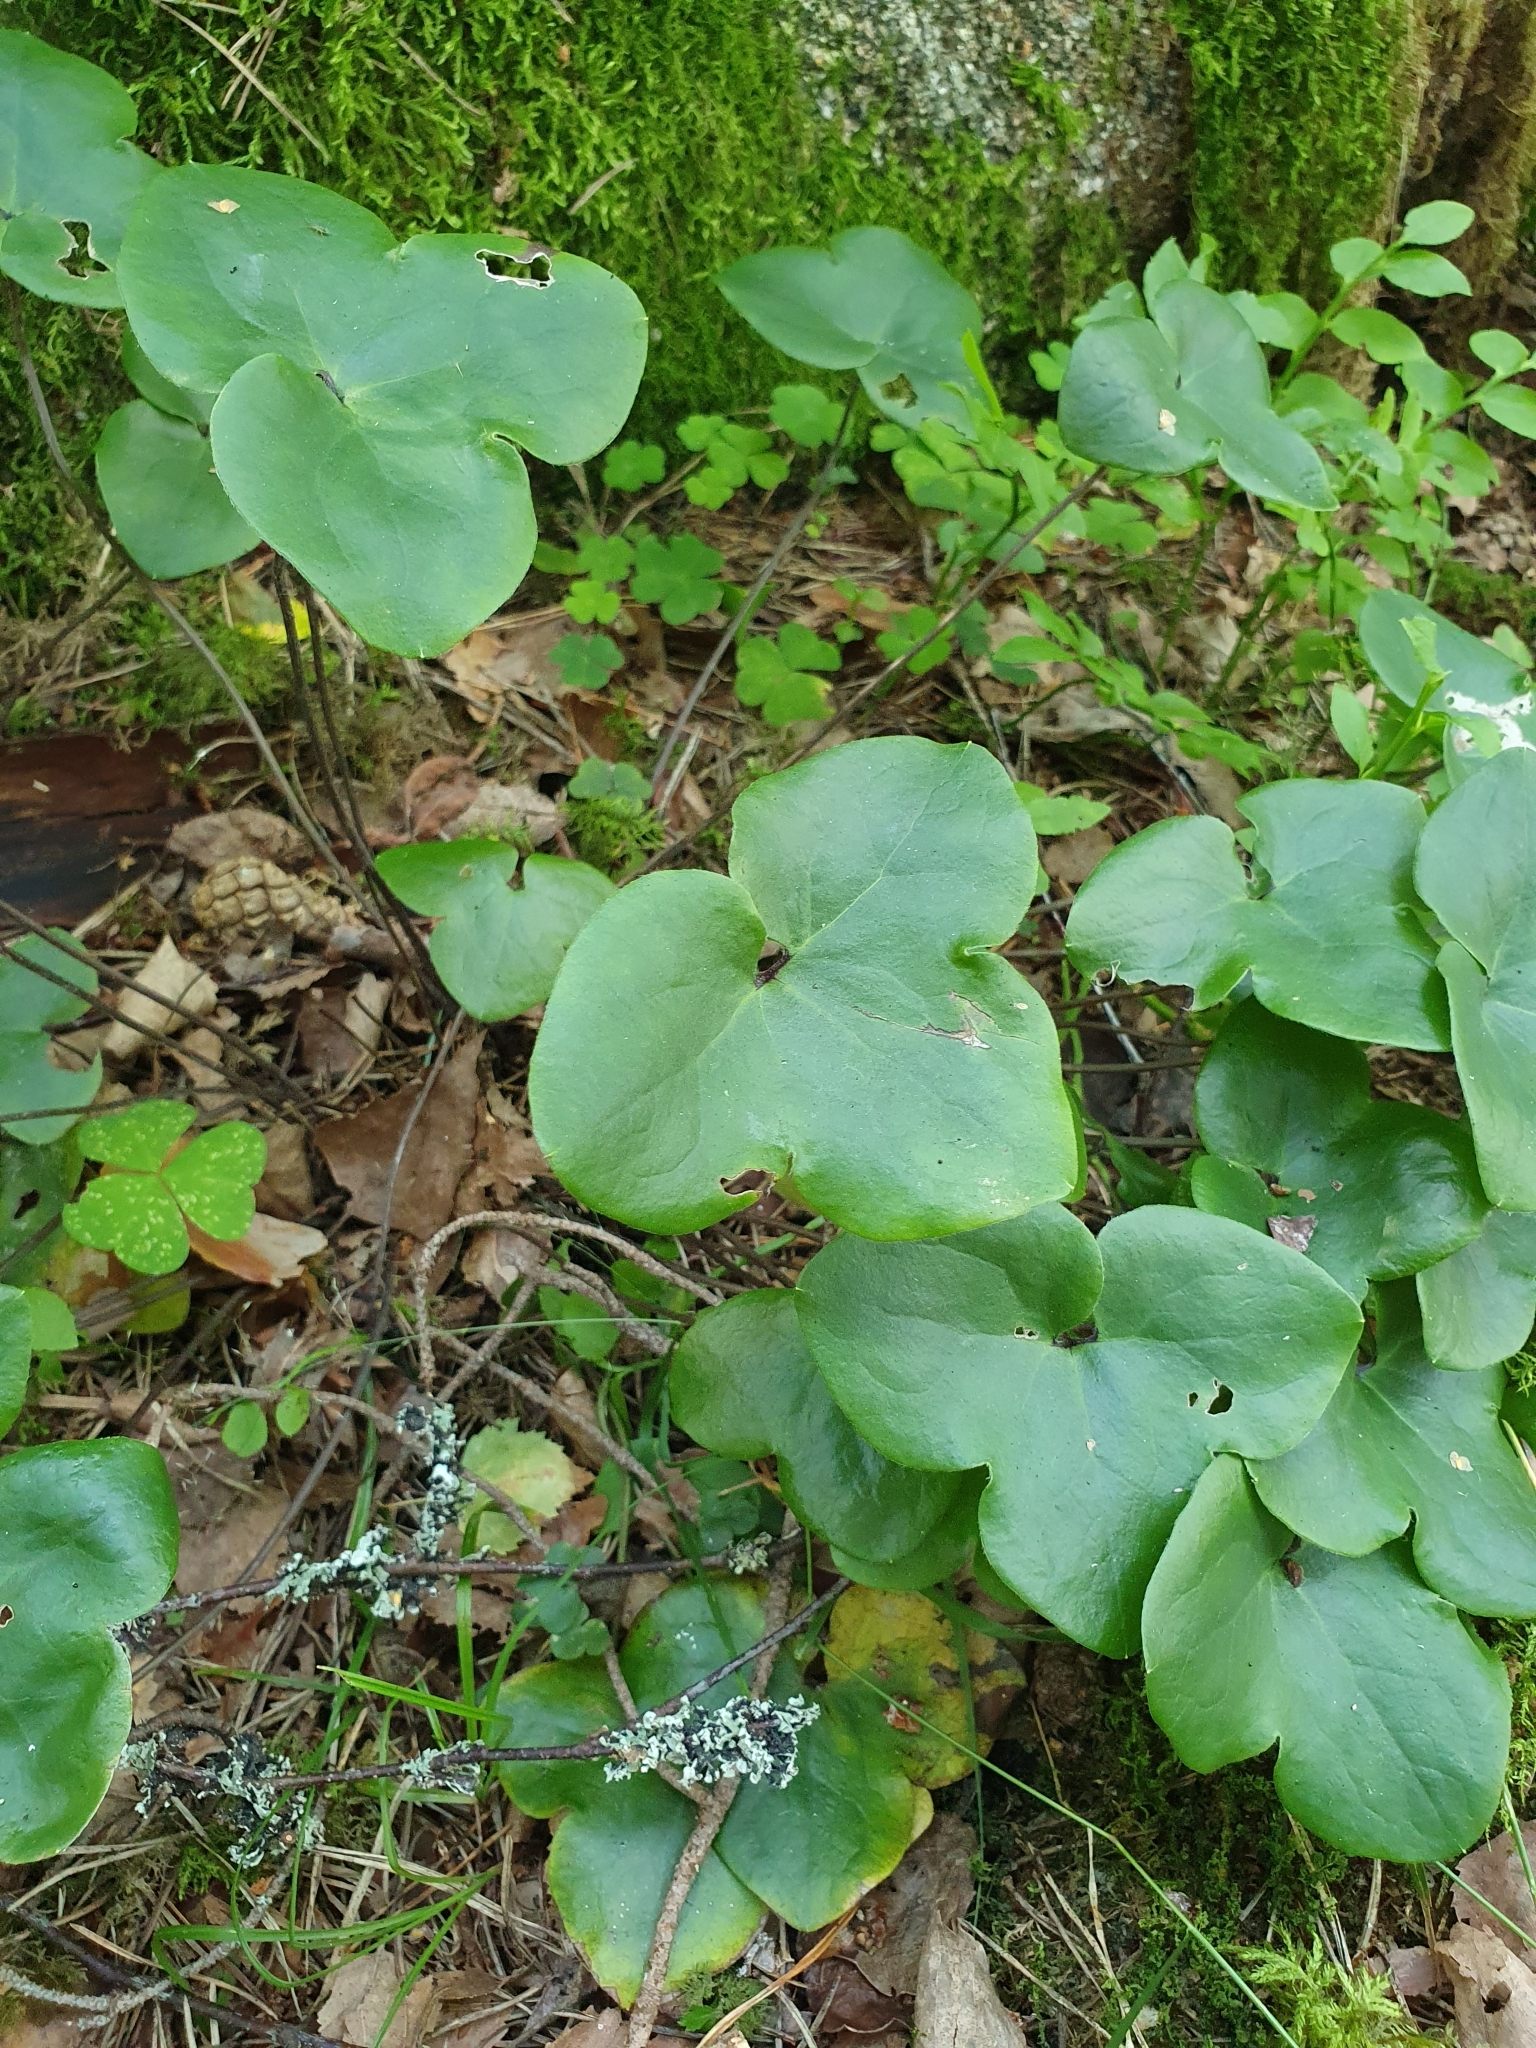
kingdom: Plantae
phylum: Tracheophyta
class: Magnoliopsida
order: Ranunculales
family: Ranunculaceae
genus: Hepatica
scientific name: Hepatica nobilis
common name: Liverleaf
